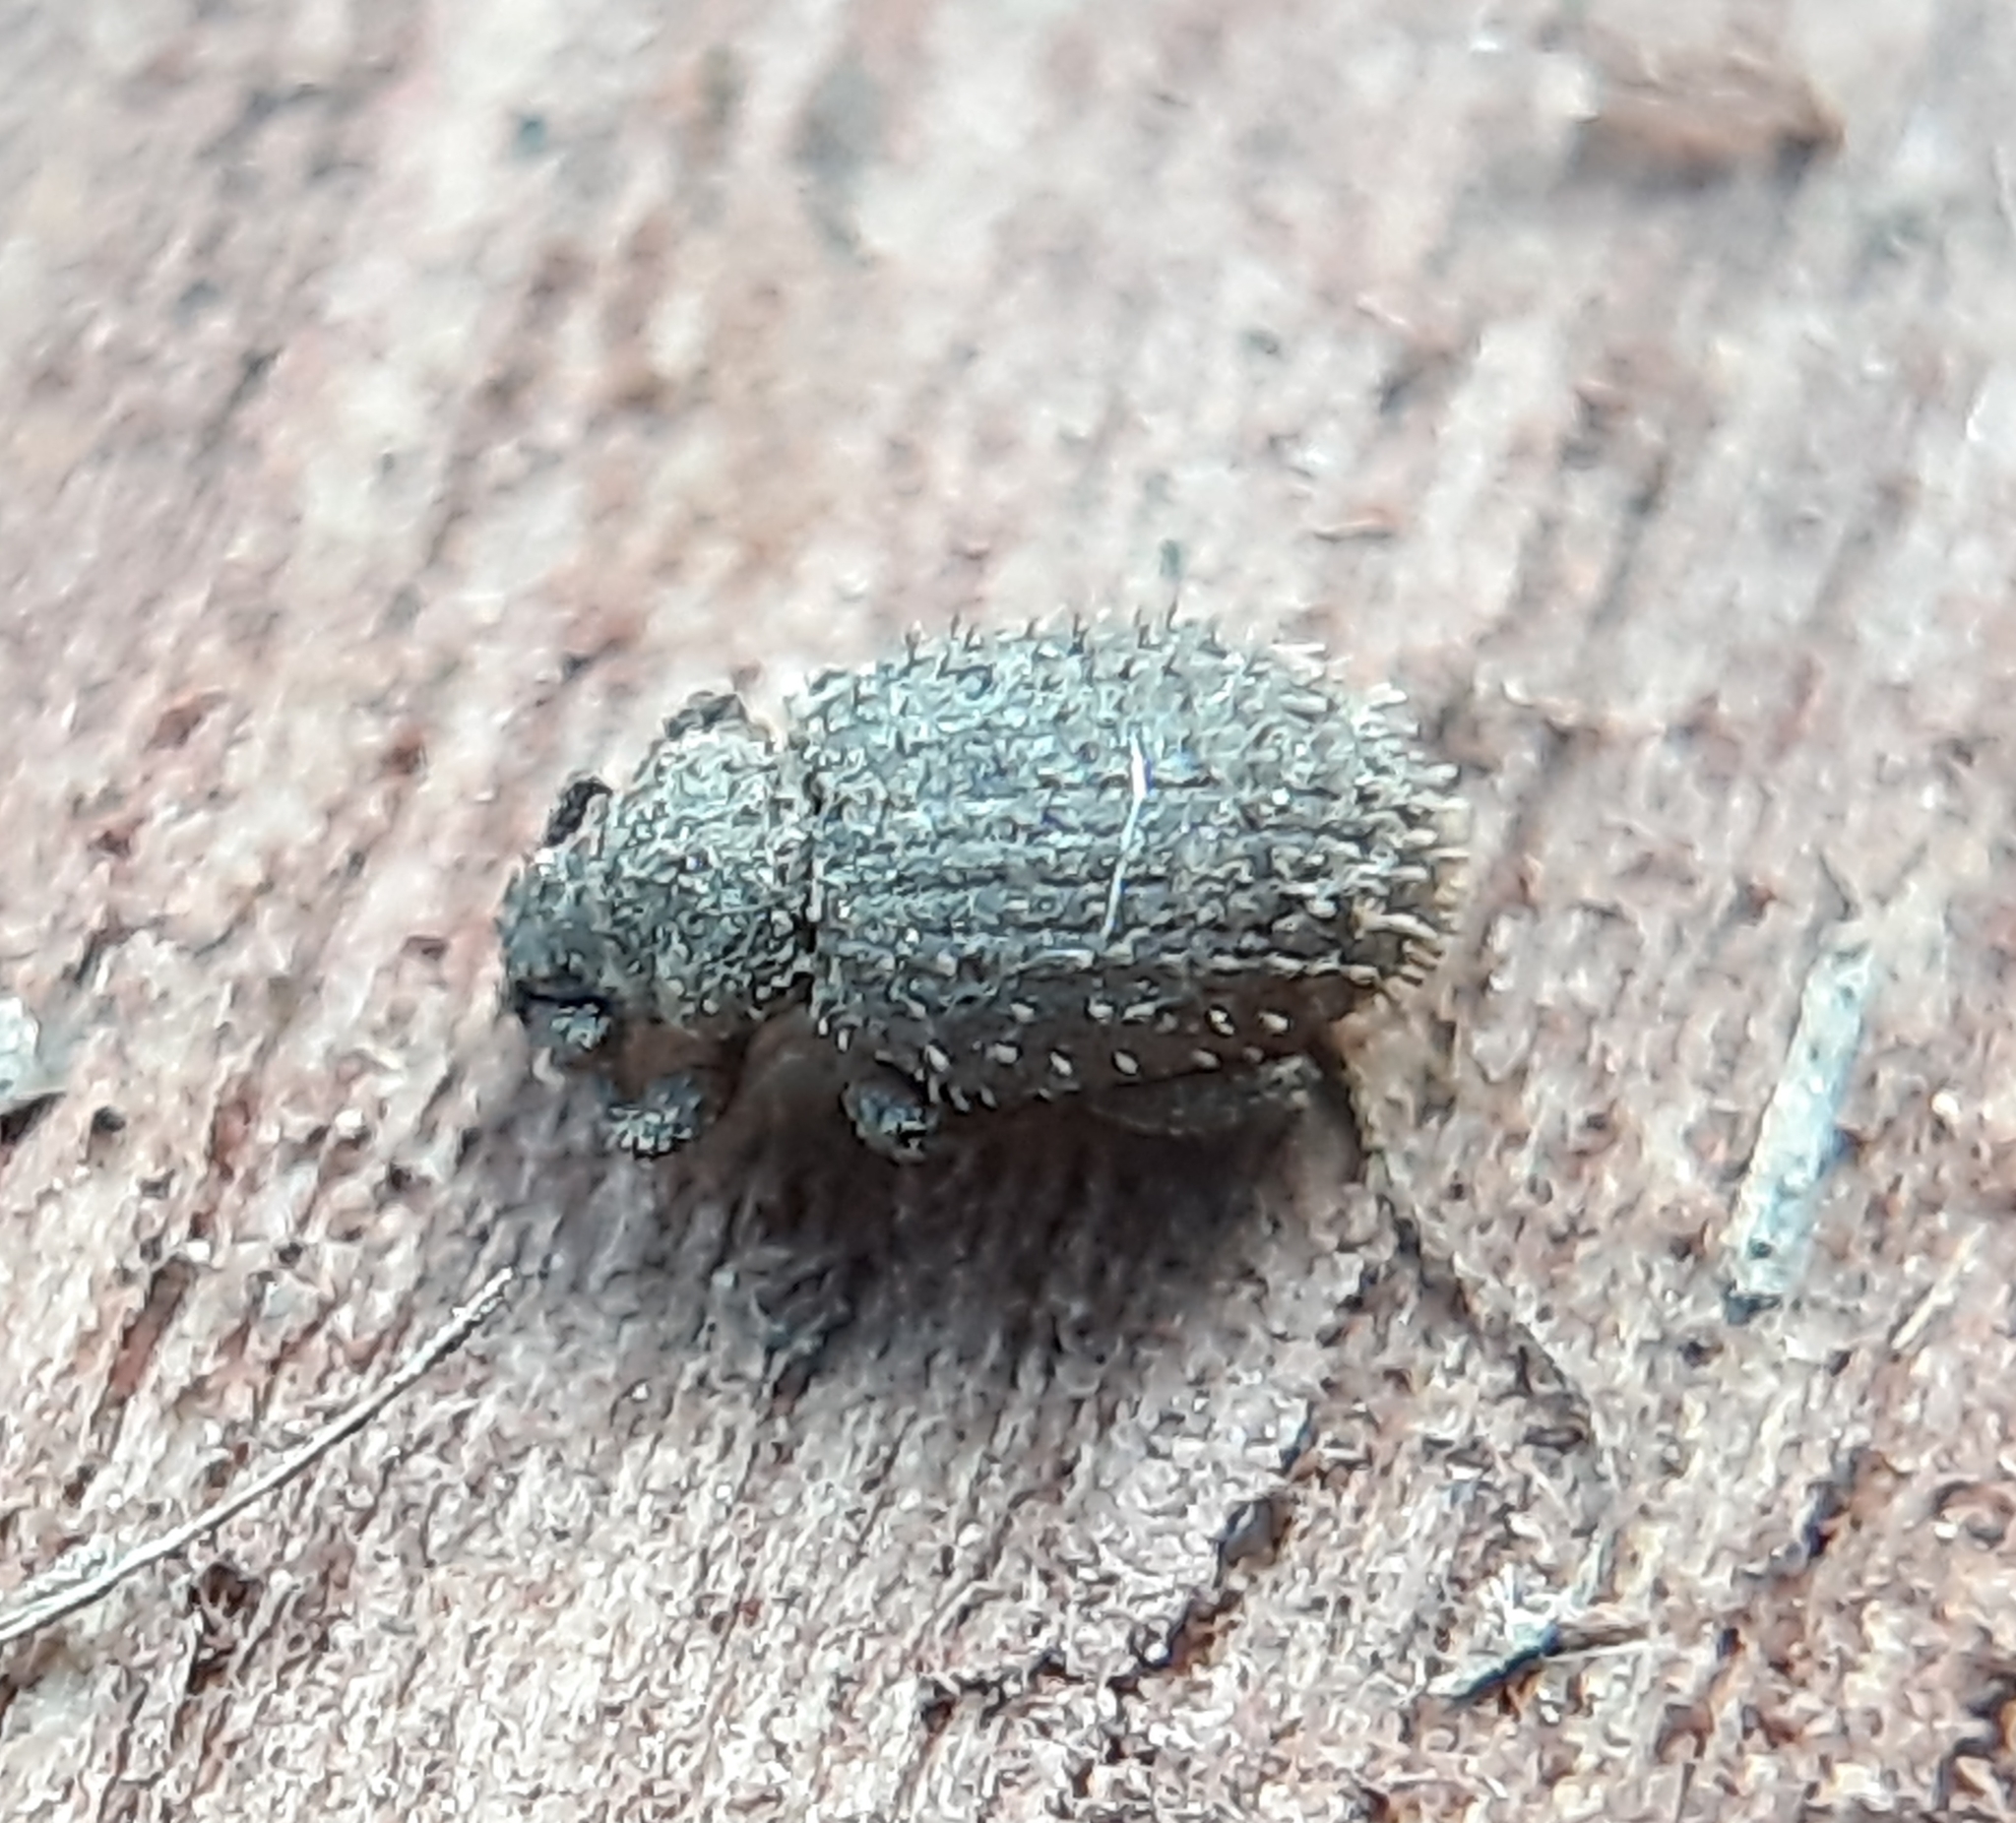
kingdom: Animalia
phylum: Arthropoda
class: Insecta
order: Coleoptera
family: Curculionidae
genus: Cathormiocerus
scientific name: Cathormiocerus aristatus
